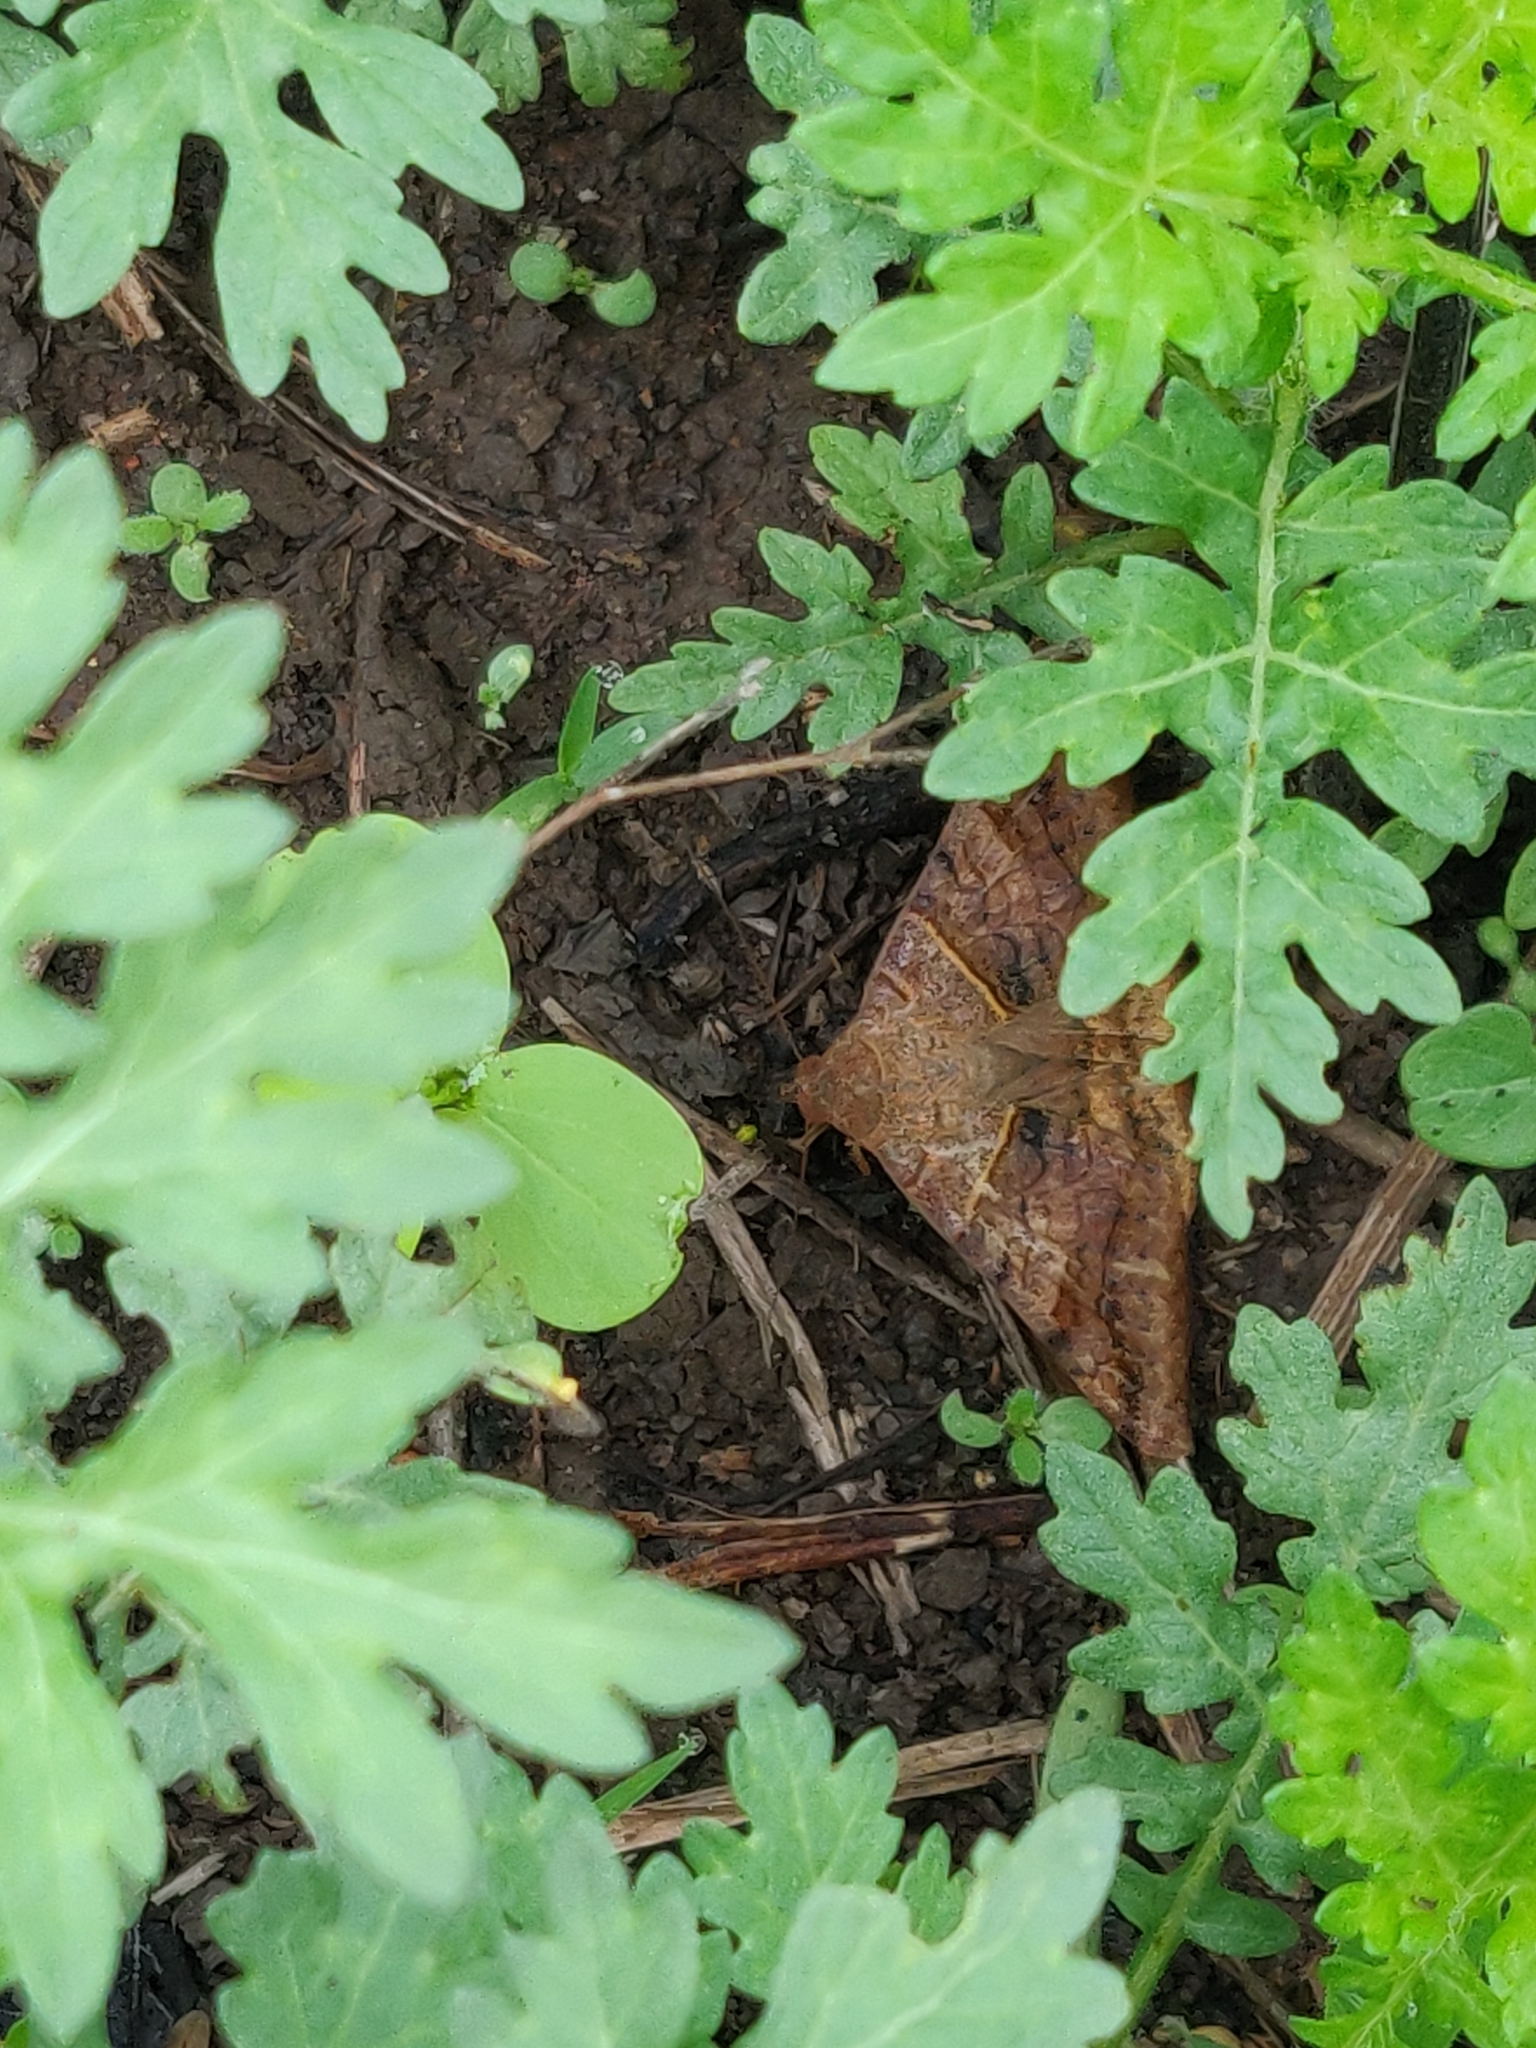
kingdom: Animalia
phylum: Arthropoda
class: Insecta
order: Lepidoptera
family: Erebidae
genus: Mocis
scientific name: Mocis undata
